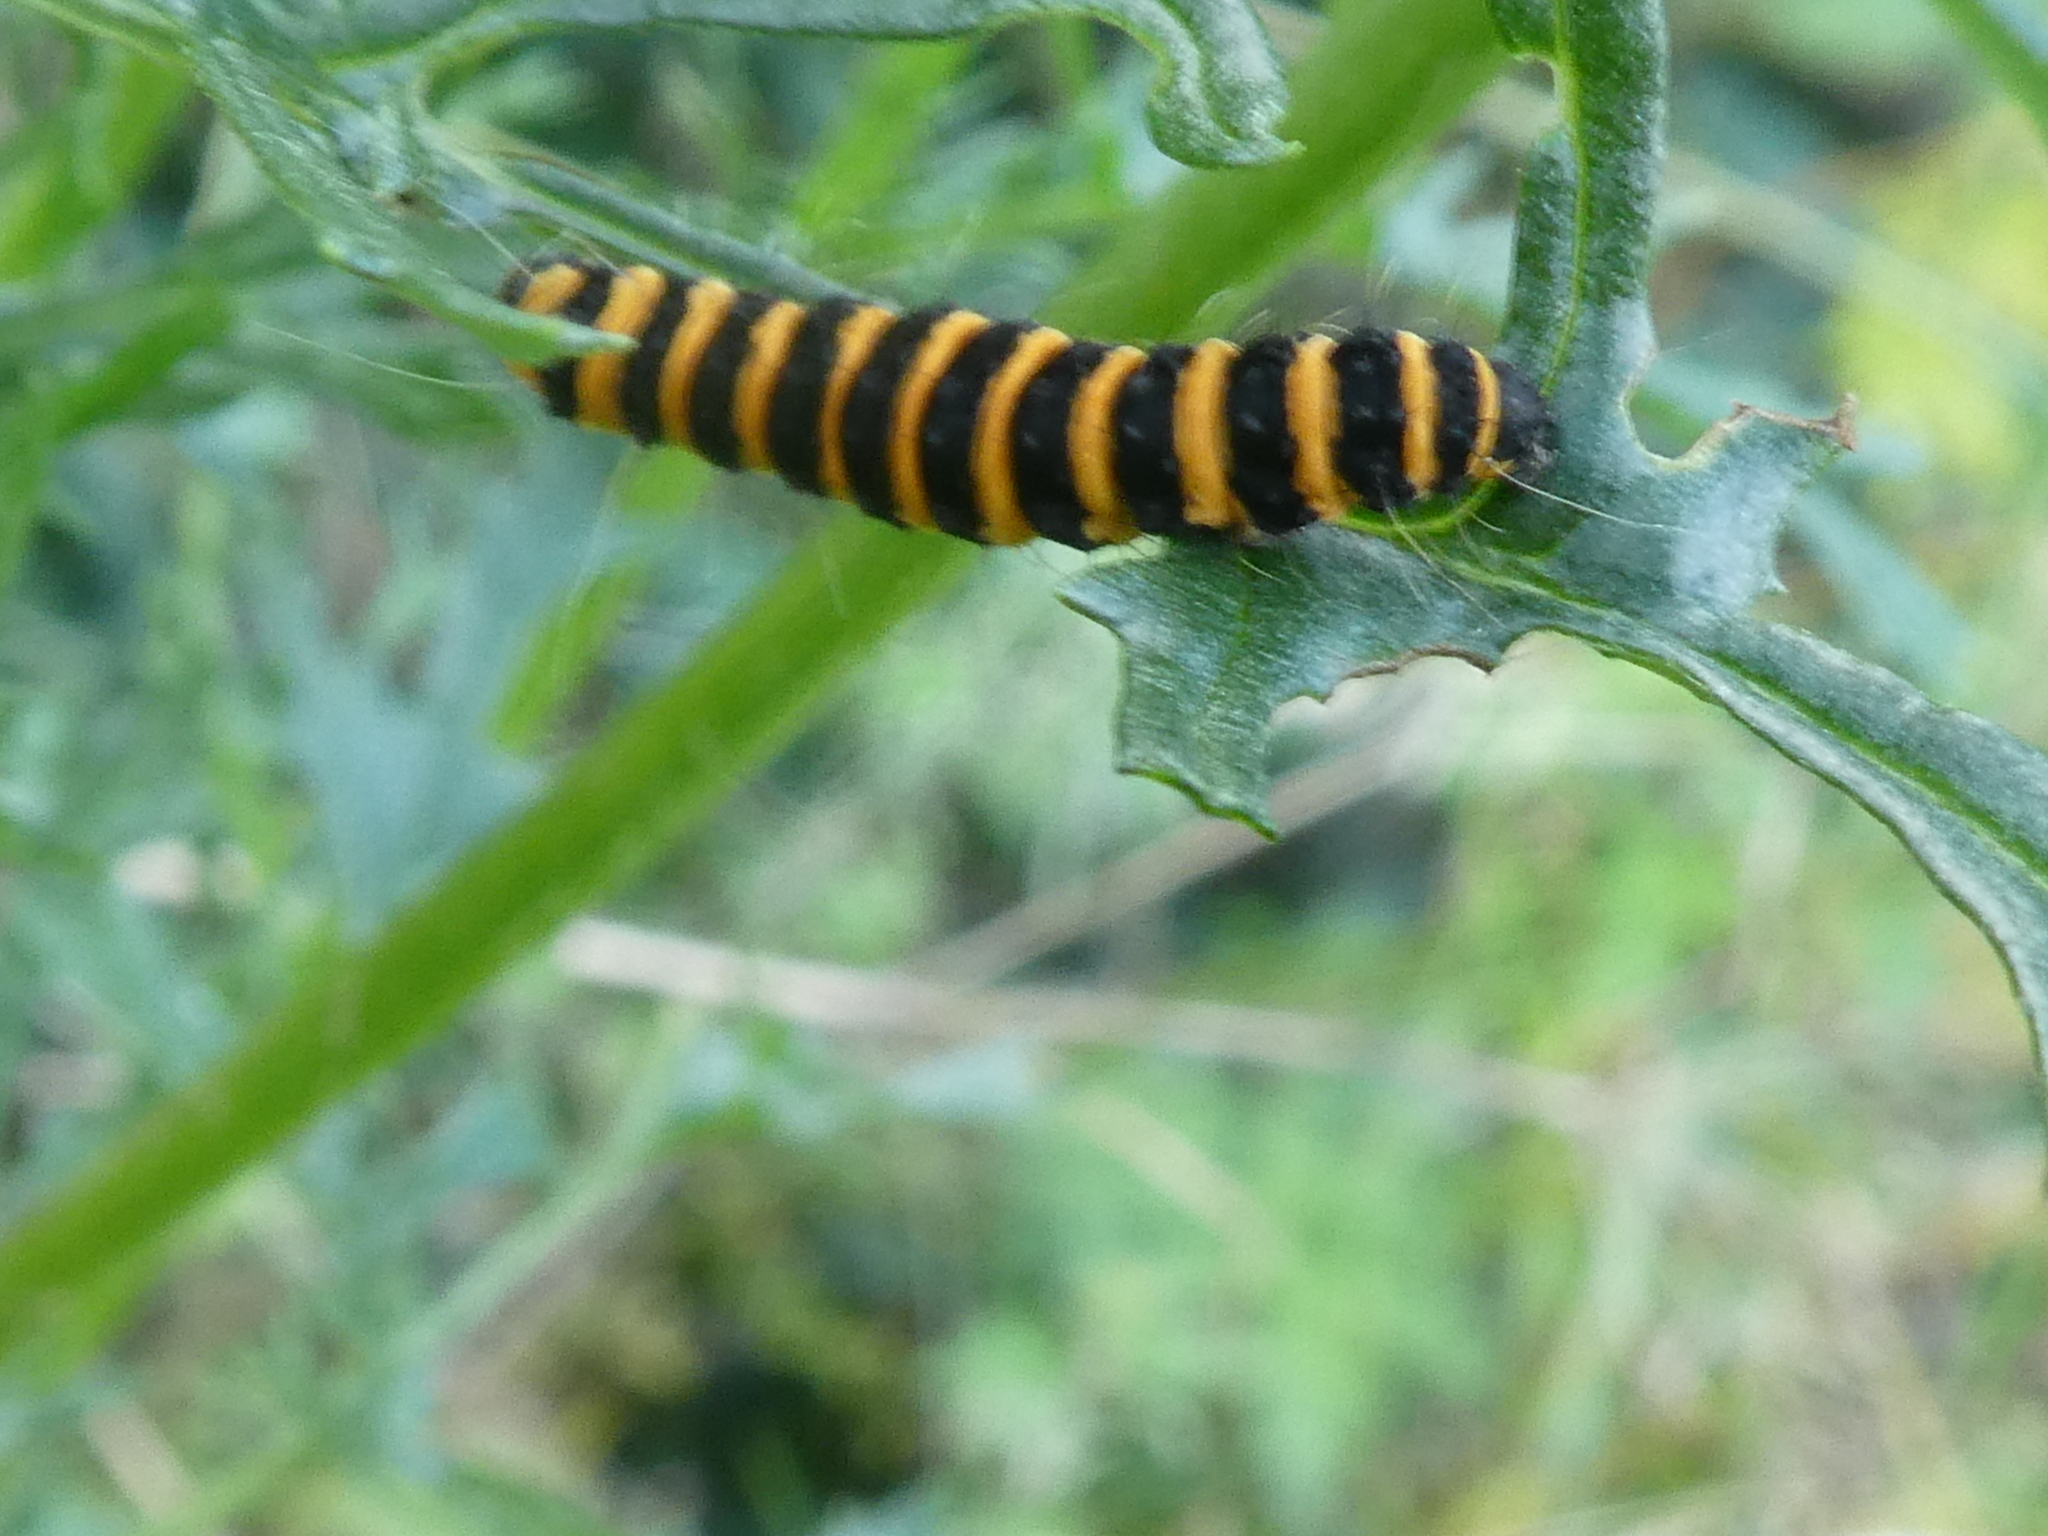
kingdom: Animalia
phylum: Arthropoda
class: Insecta
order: Lepidoptera
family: Erebidae
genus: Tyria
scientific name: Tyria jacobaeae
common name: Cinnabar
